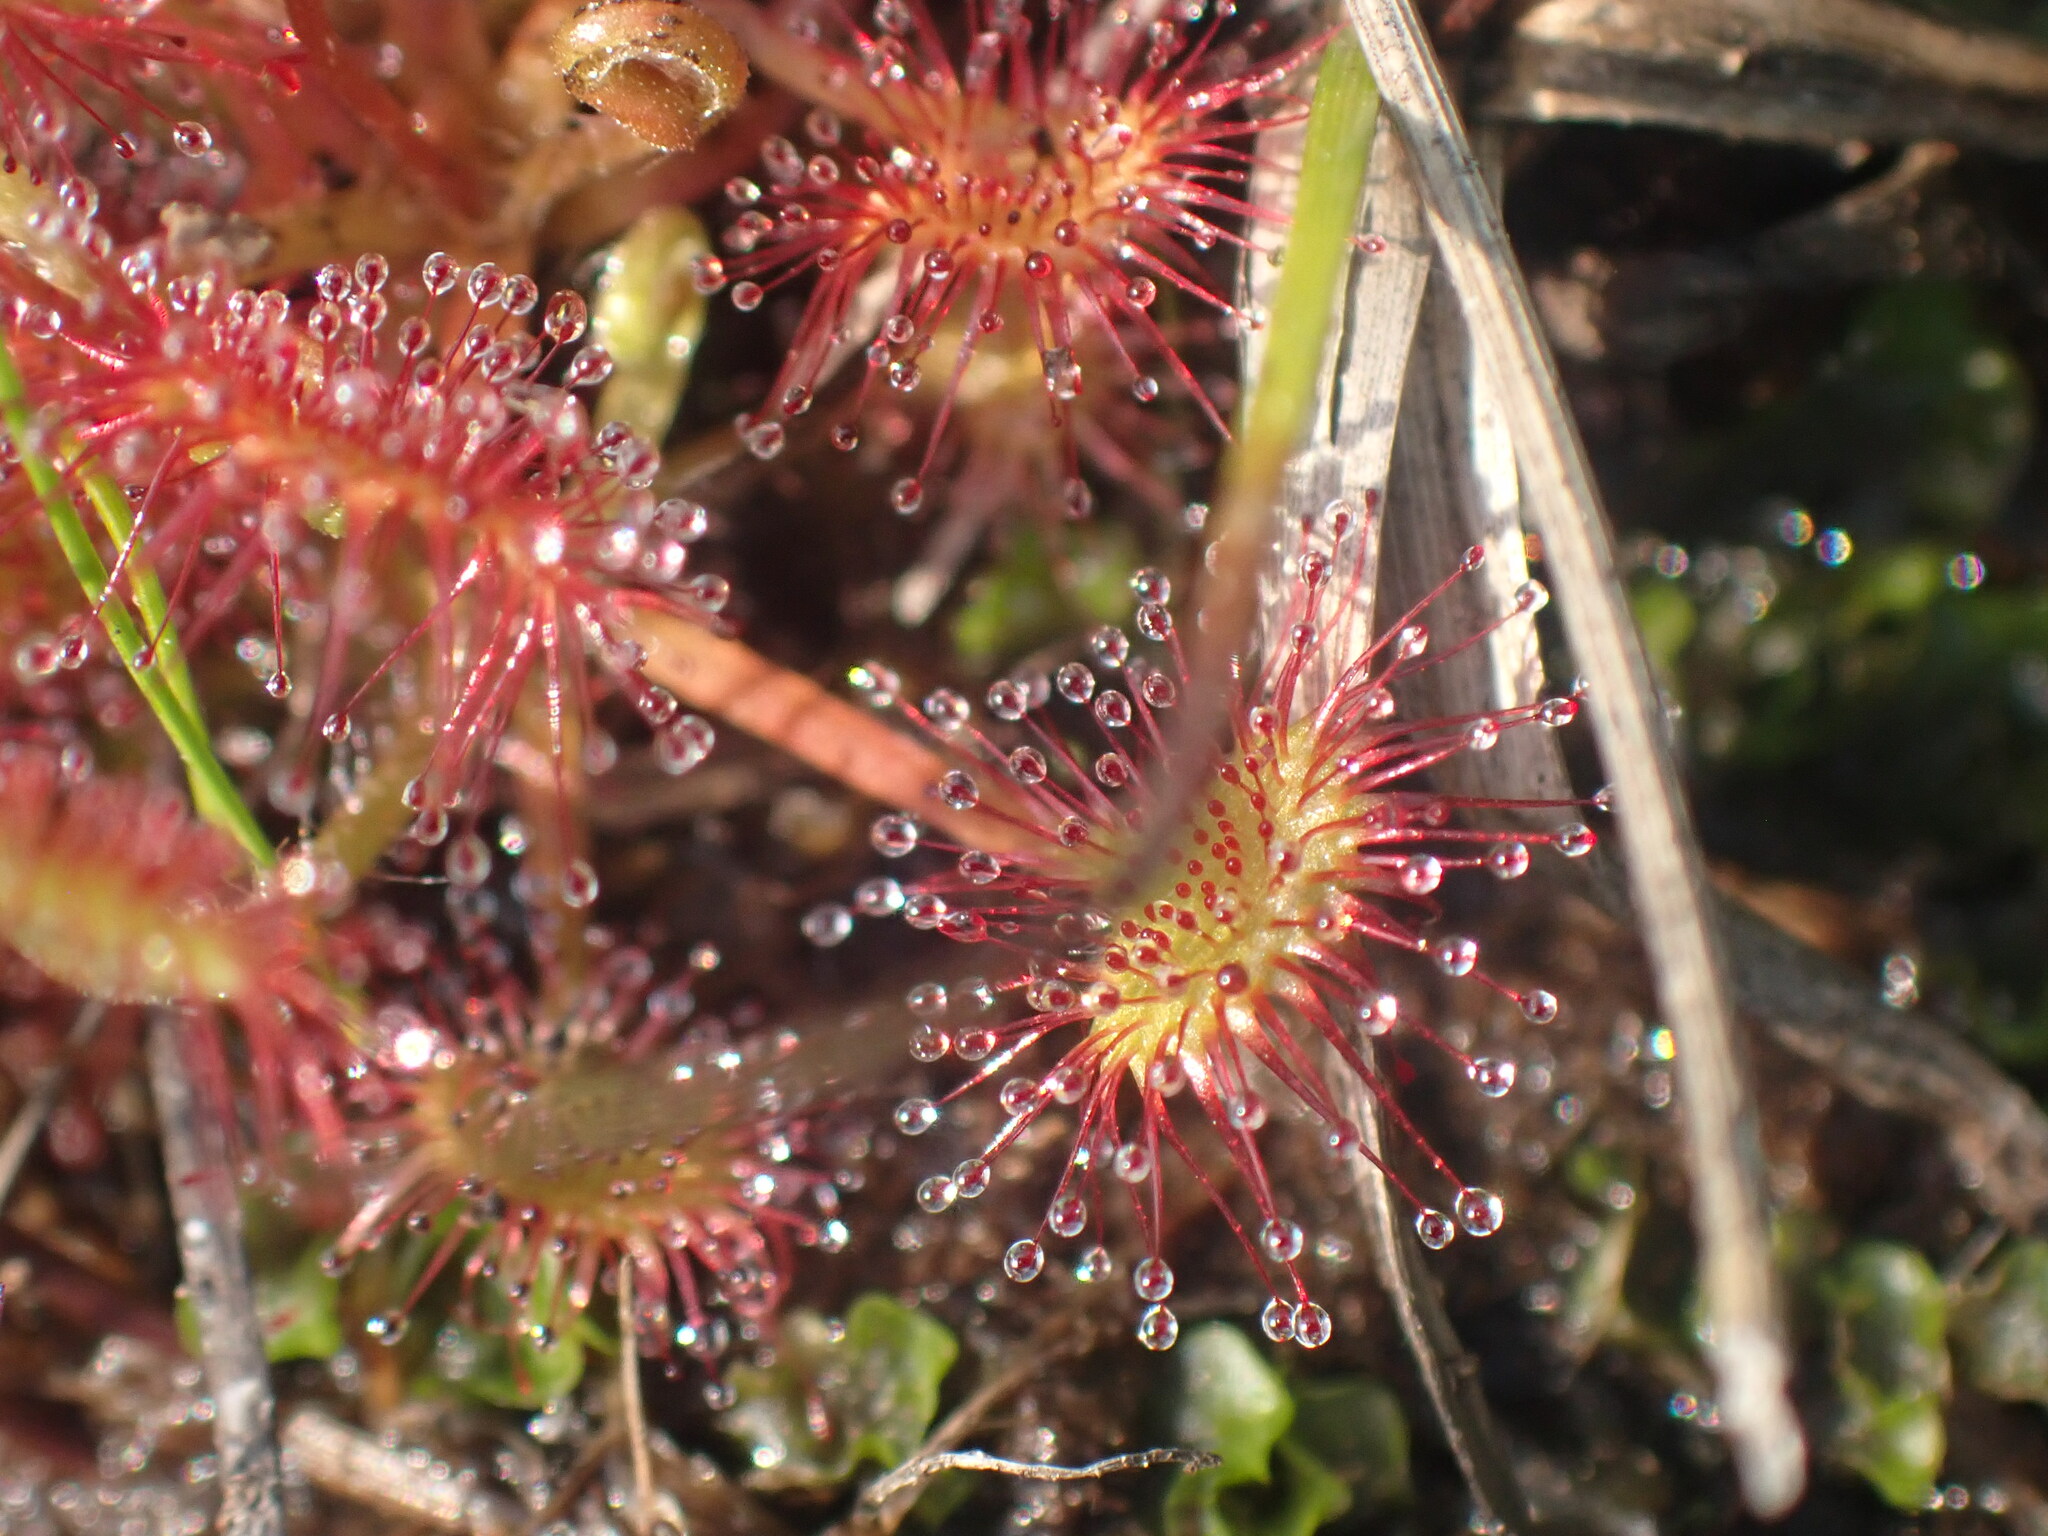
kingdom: Plantae
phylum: Tracheophyta
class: Magnoliopsida
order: Caryophyllales
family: Droseraceae
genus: Drosera
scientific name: Drosera rotundifolia
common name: Round-leaved sundew
